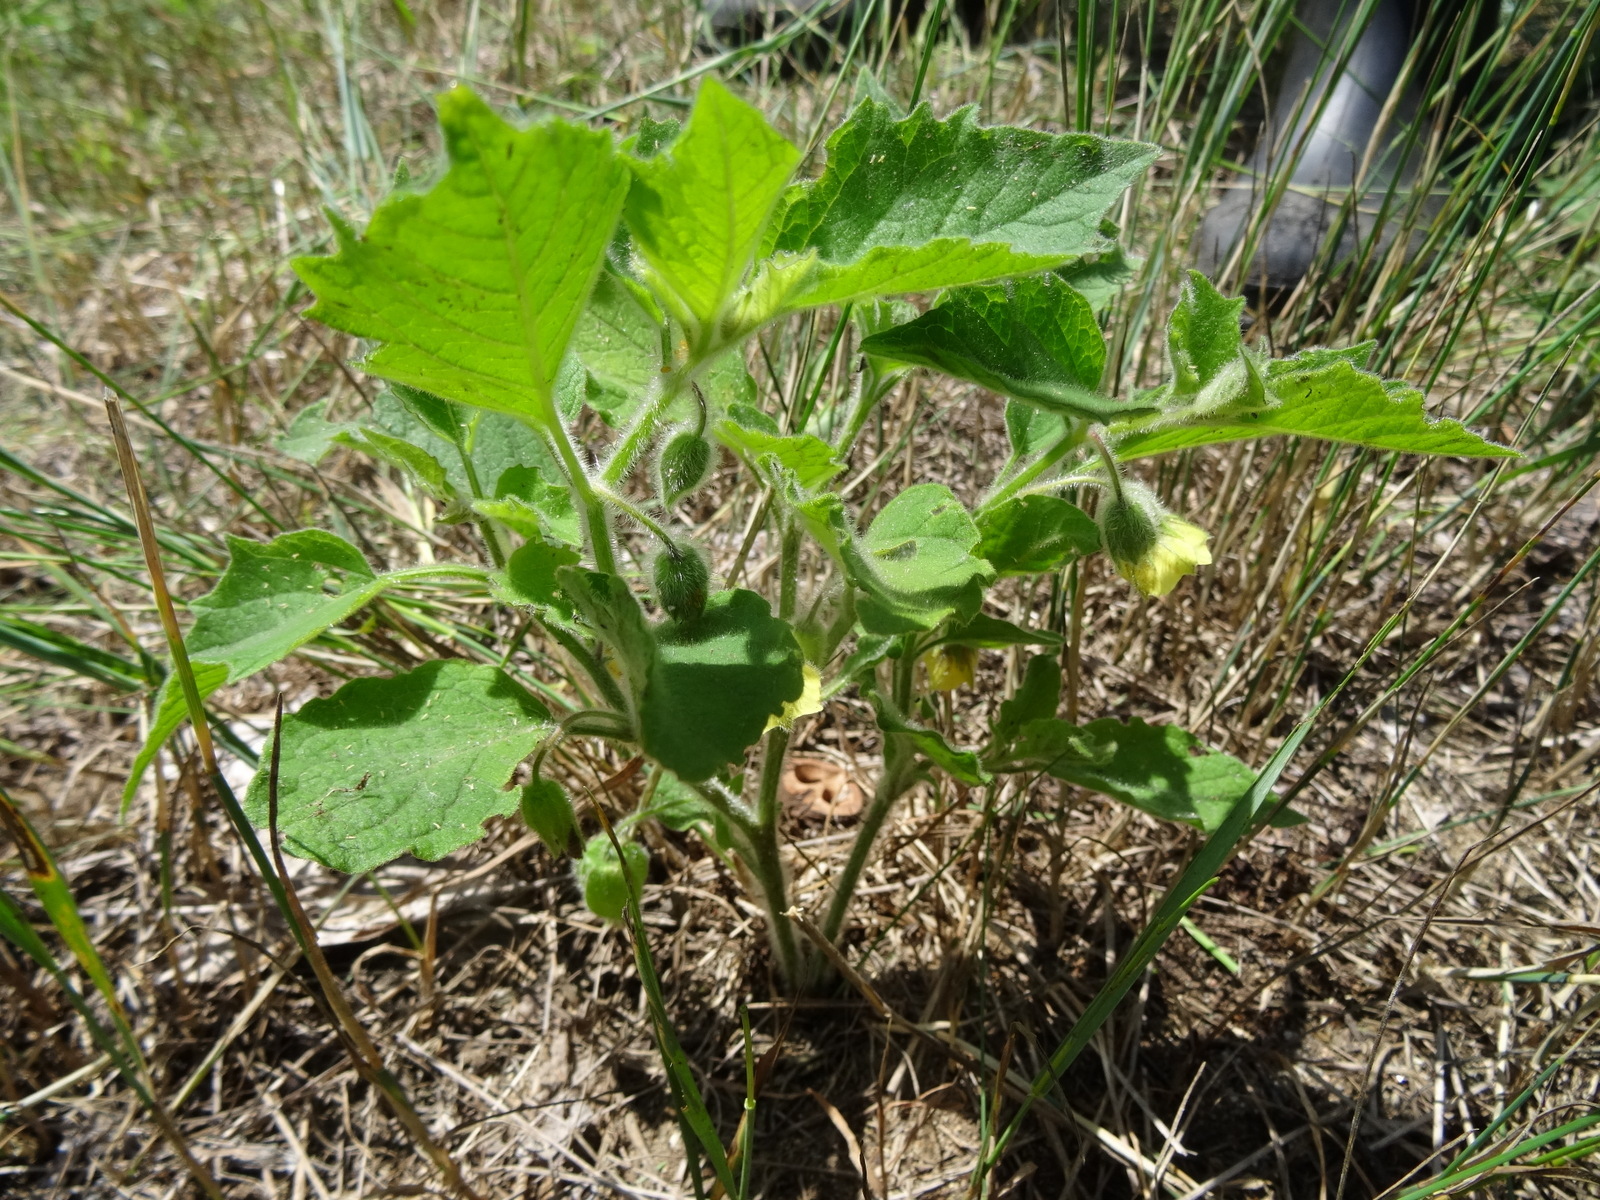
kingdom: Plantae
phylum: Tracheophyta
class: Magnoliopsida
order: Solanales
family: Solanaceae
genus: Physalis
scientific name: Physalis heterophylla
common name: Clammy ground-cherry
